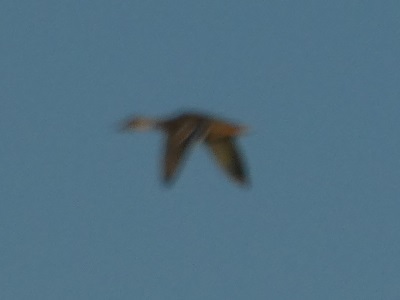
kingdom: Animalia
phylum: Chordata
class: Aves
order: Anseriformes
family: Anatidae
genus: Anas
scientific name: Anas platyrhynchos
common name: Mallard
